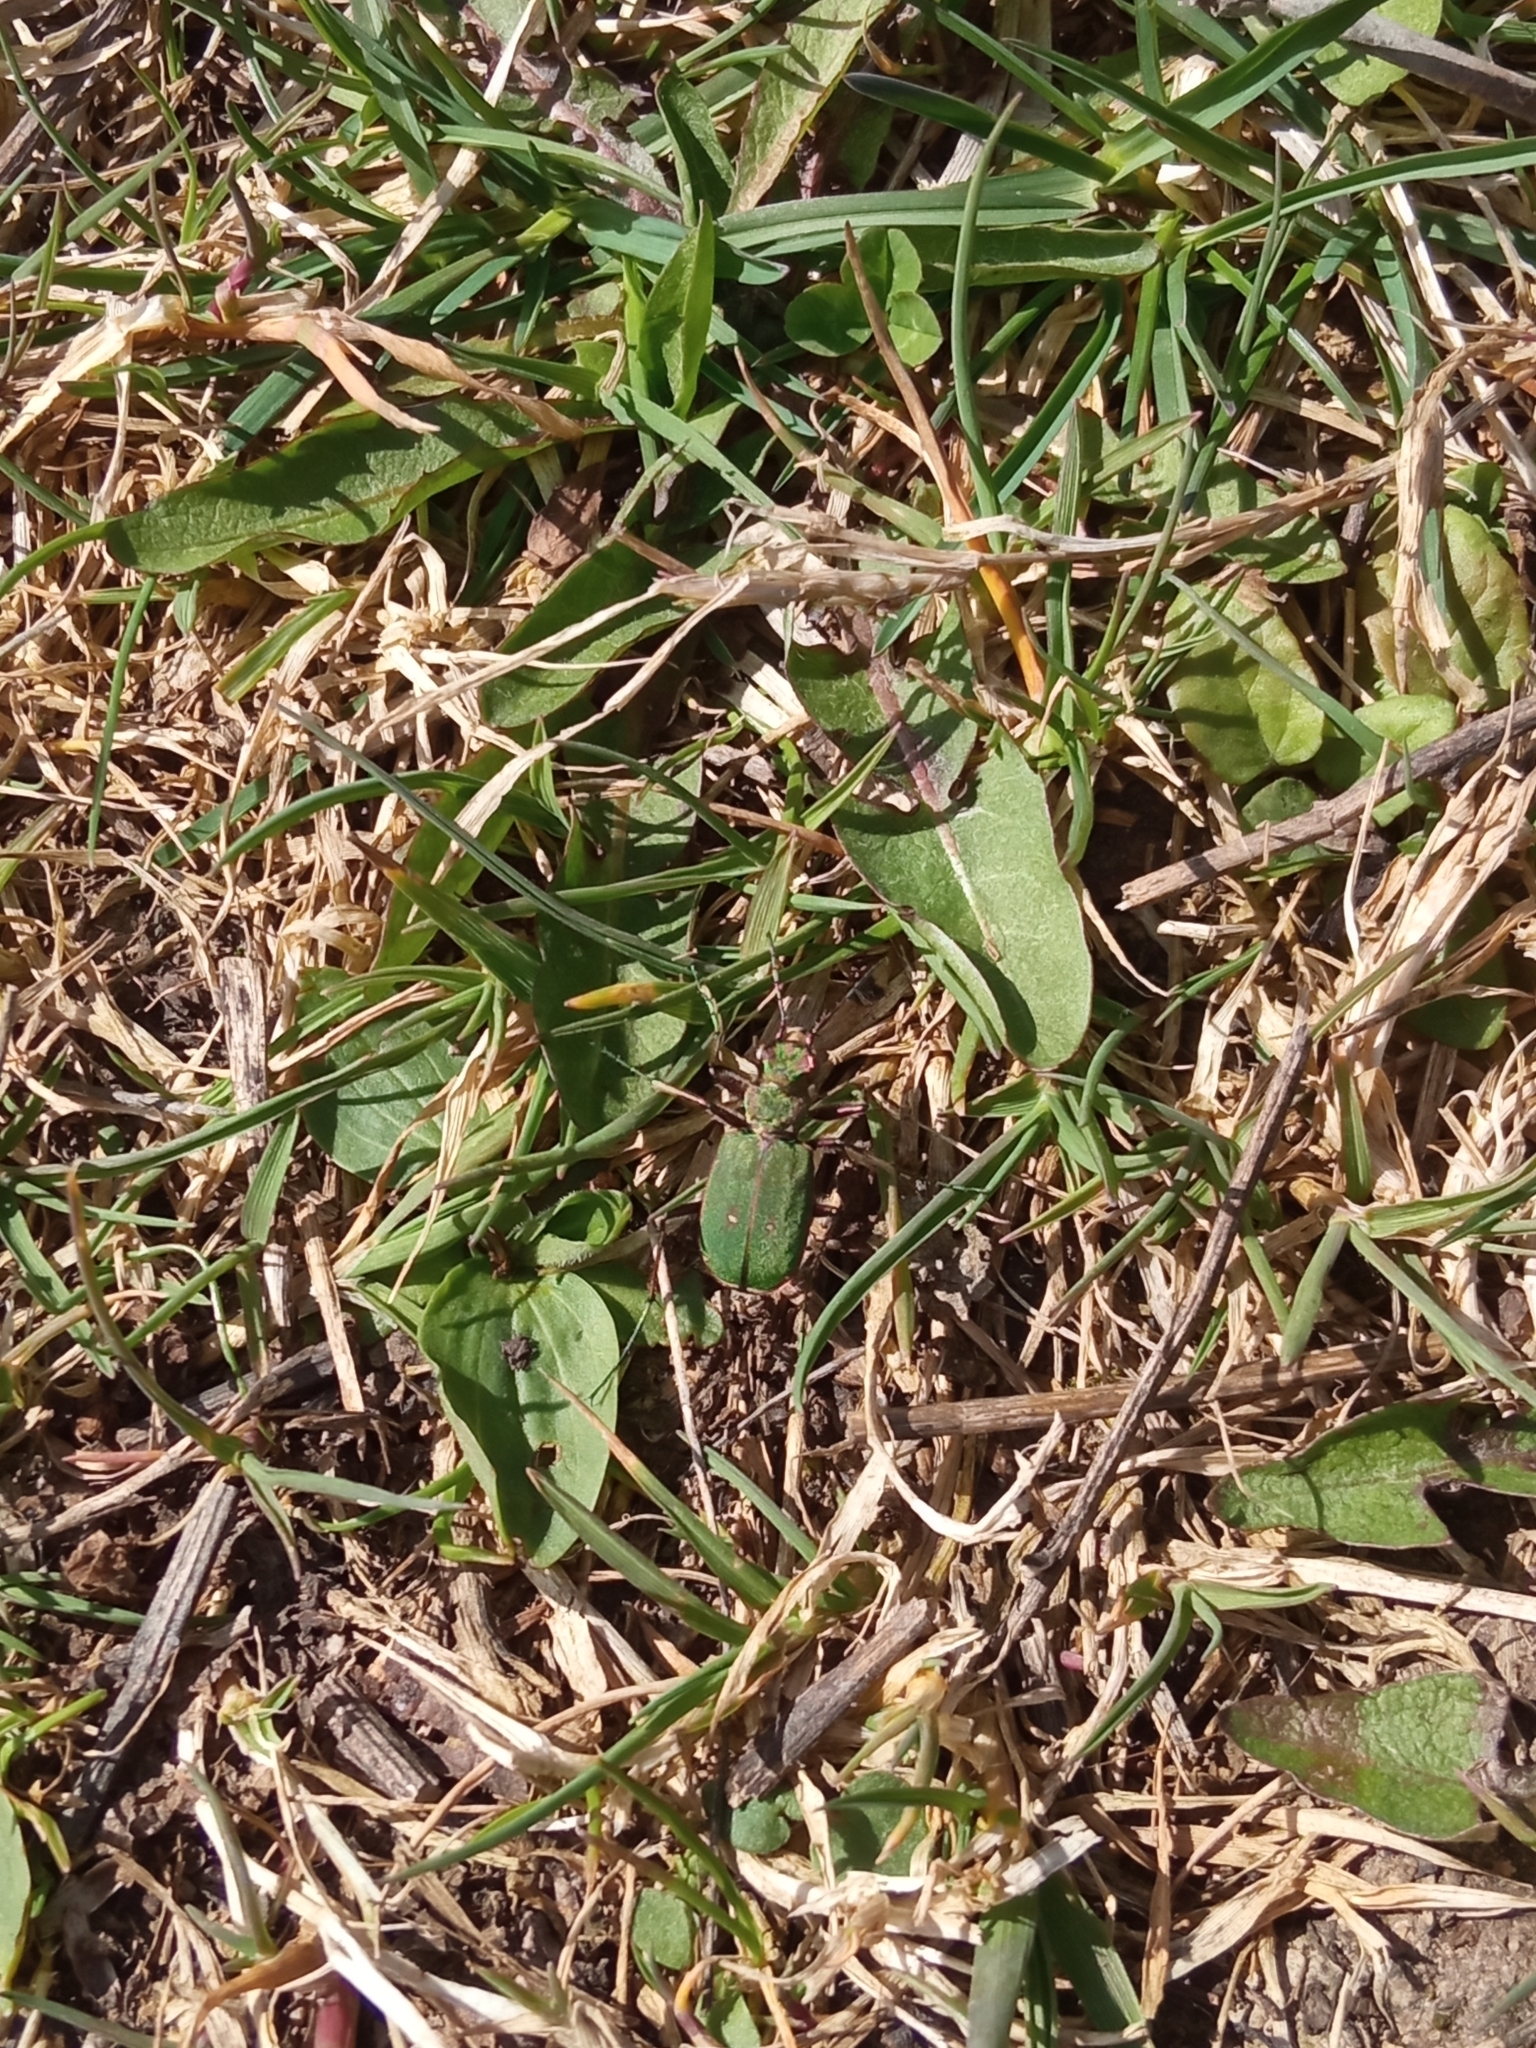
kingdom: Animalia
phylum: Arthropoda
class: Insecta
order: Coleoptera
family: Carabidae
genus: Cicindela
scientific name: Cicindela campestris
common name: Common tiger beetle
